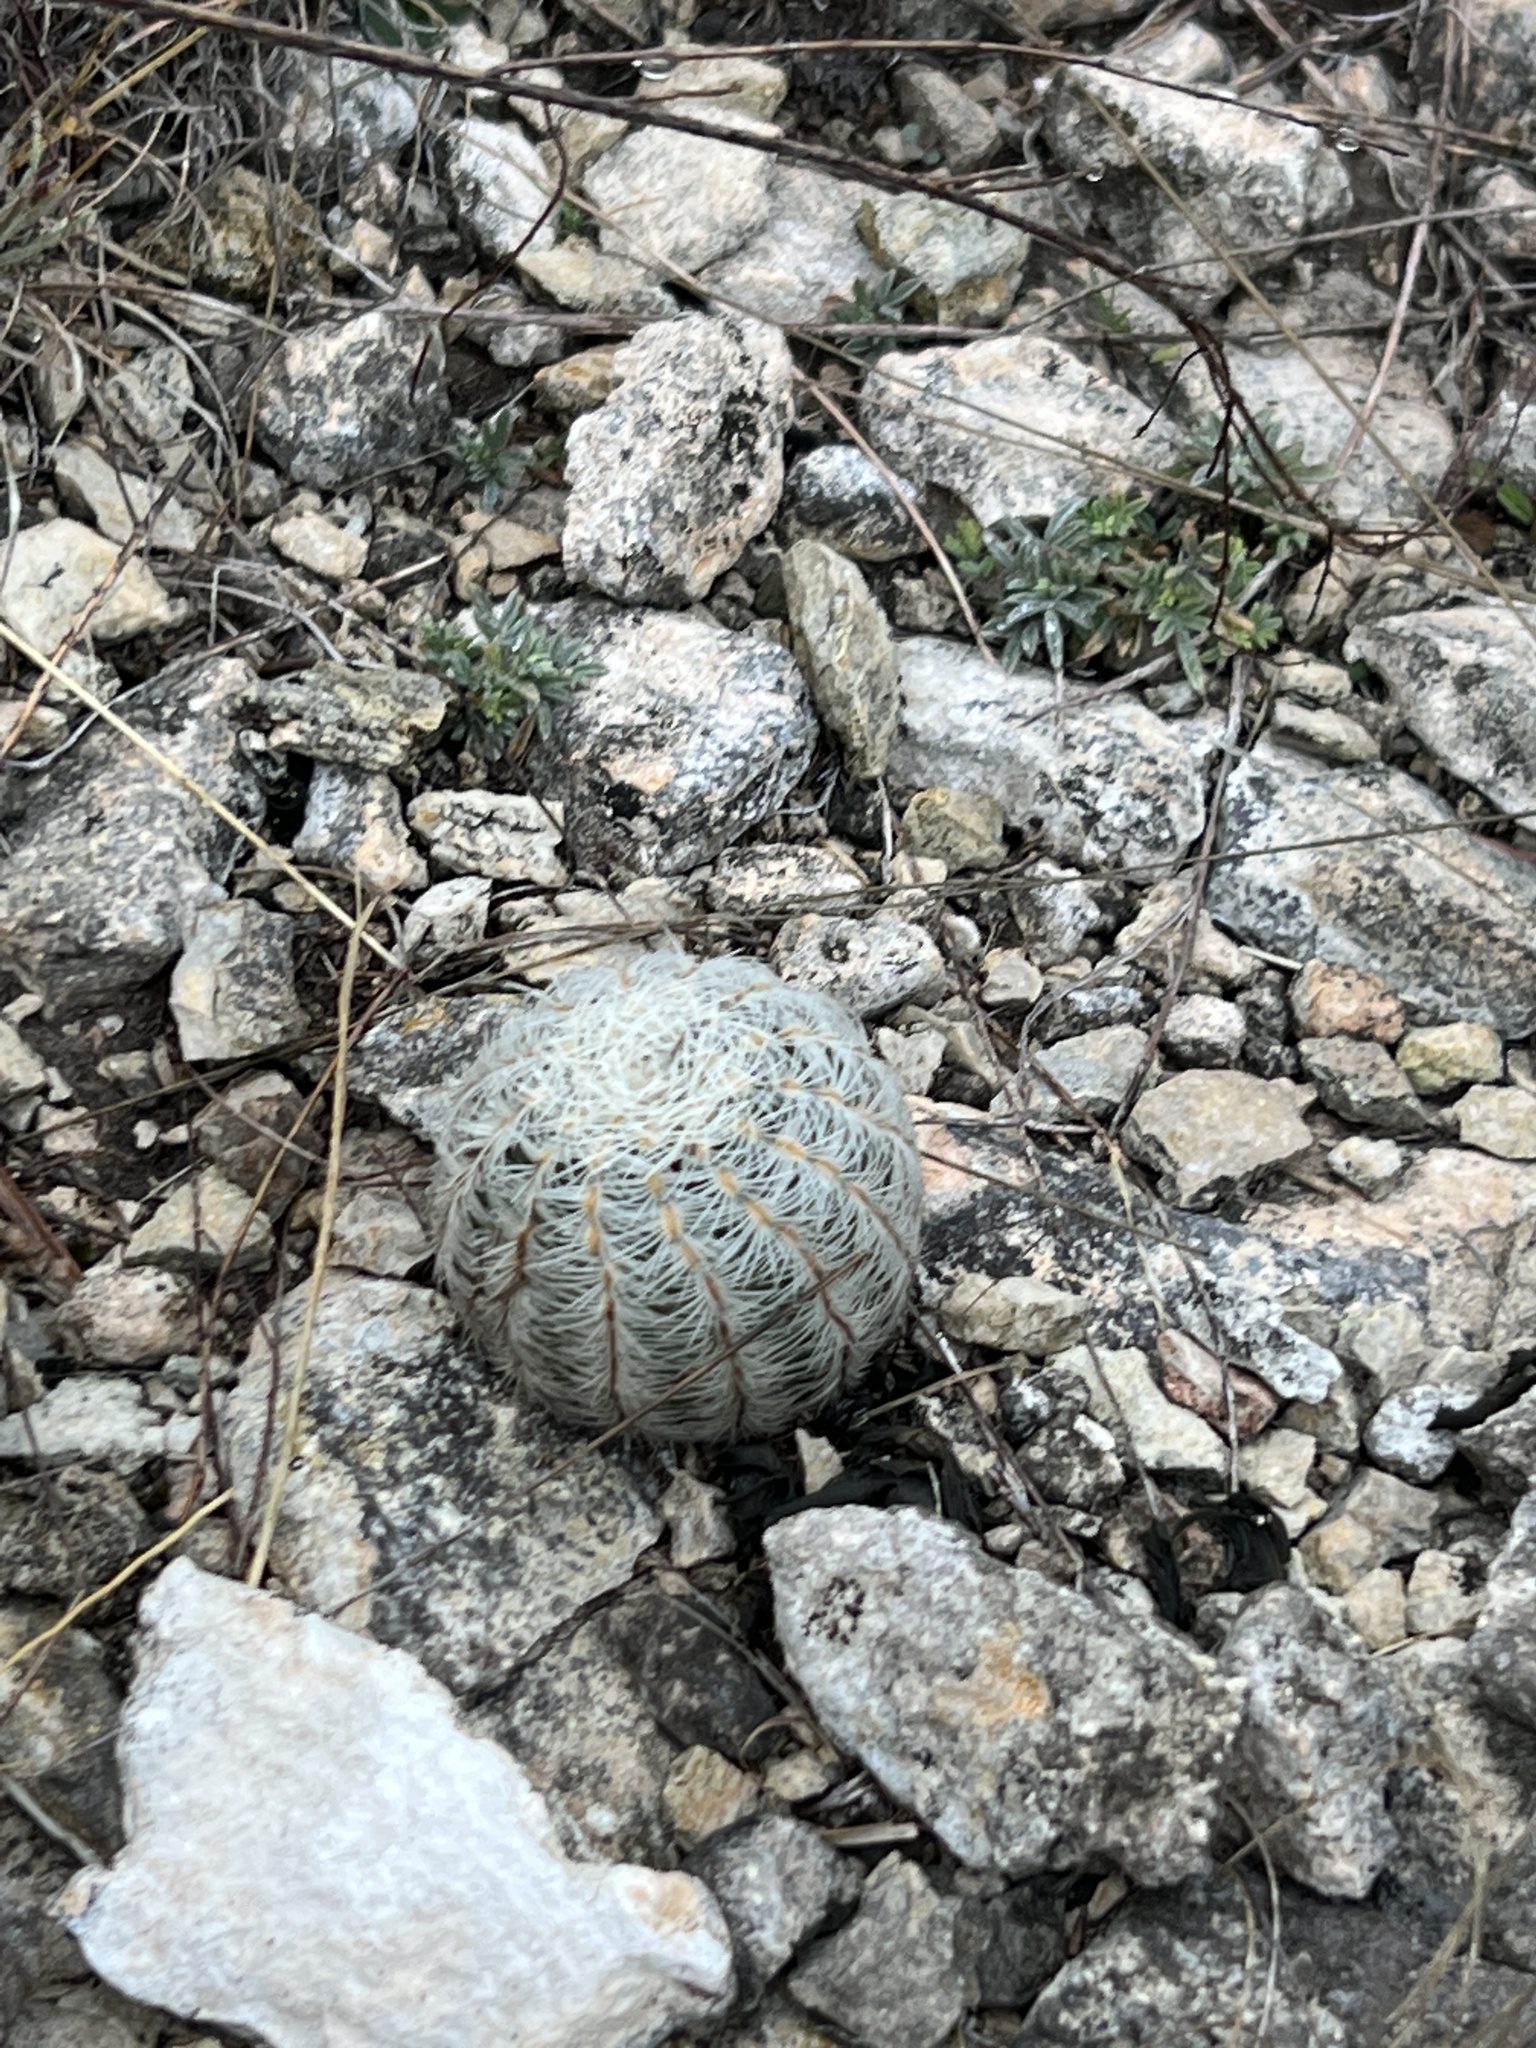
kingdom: Plantae
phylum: Tracheophyta
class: Magnoliopsida
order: Caryophyllales
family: Cactaceae
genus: Echinocereus
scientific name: Echinocereus reichenbachii
